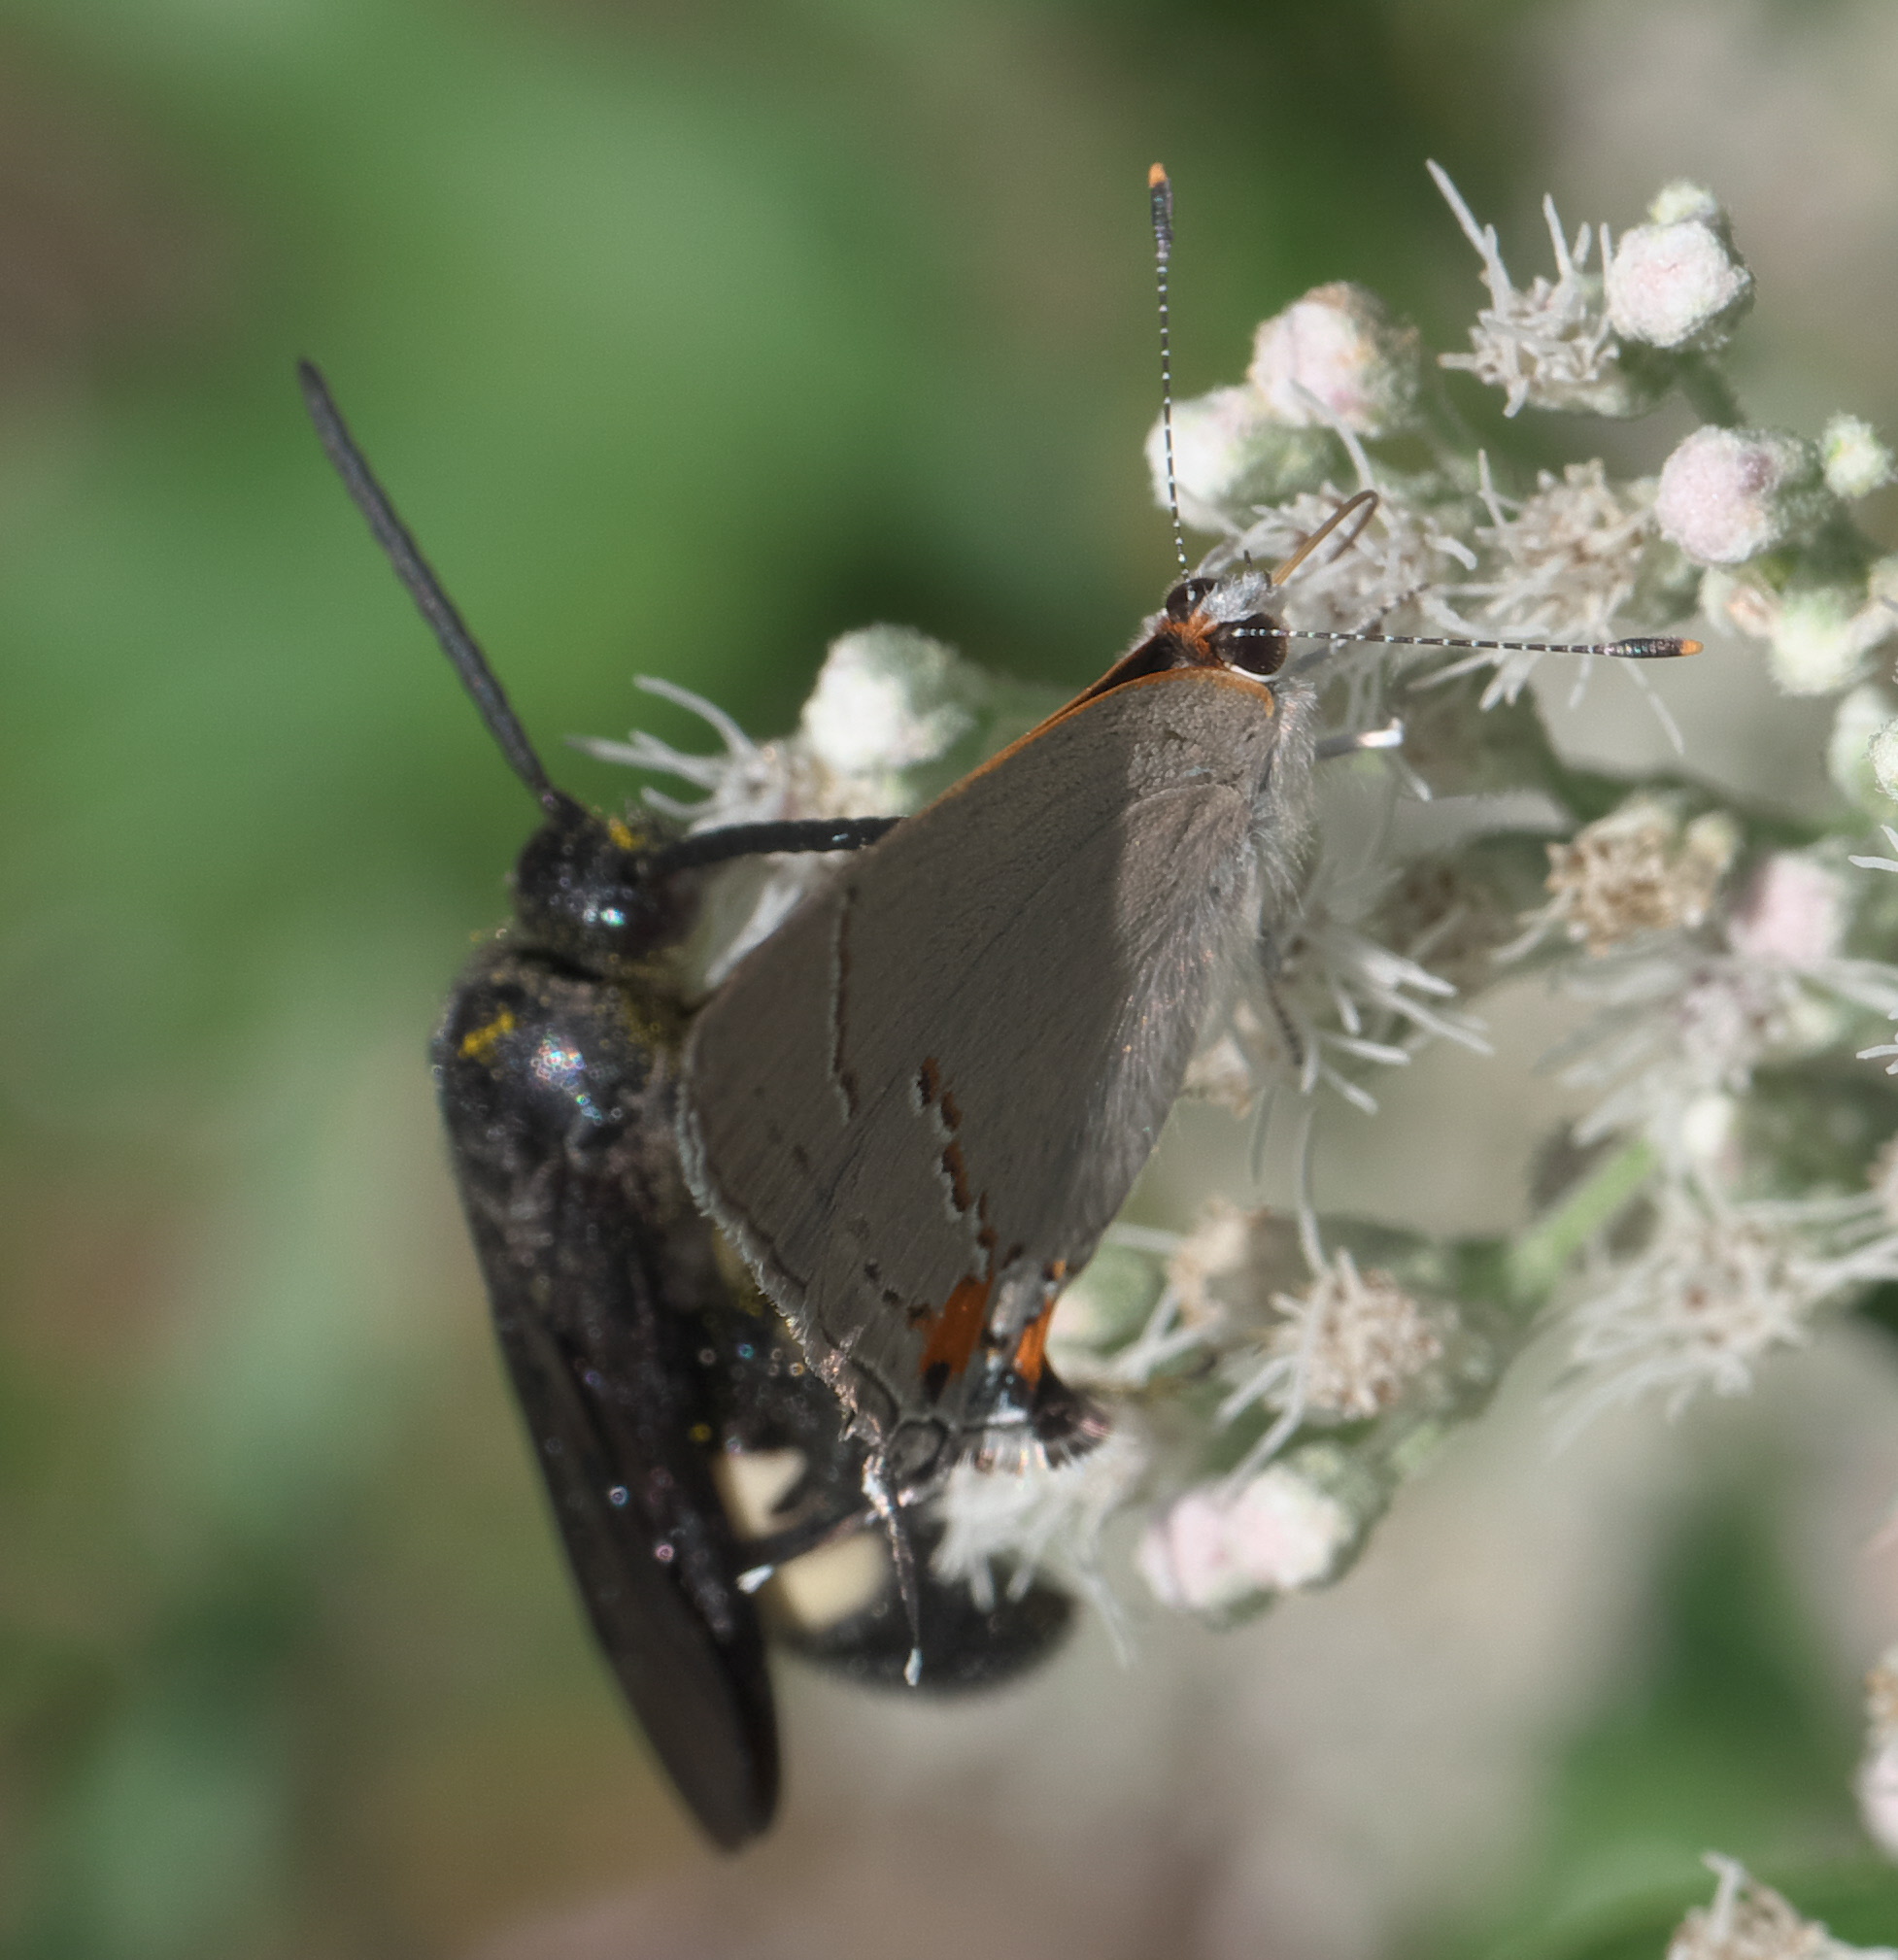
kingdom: Animalia
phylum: Arthropoda
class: Insecta
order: Lepidoptera
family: Lycaenidae
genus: Strymon
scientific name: Strymon melinus
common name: Gray hairstreak
